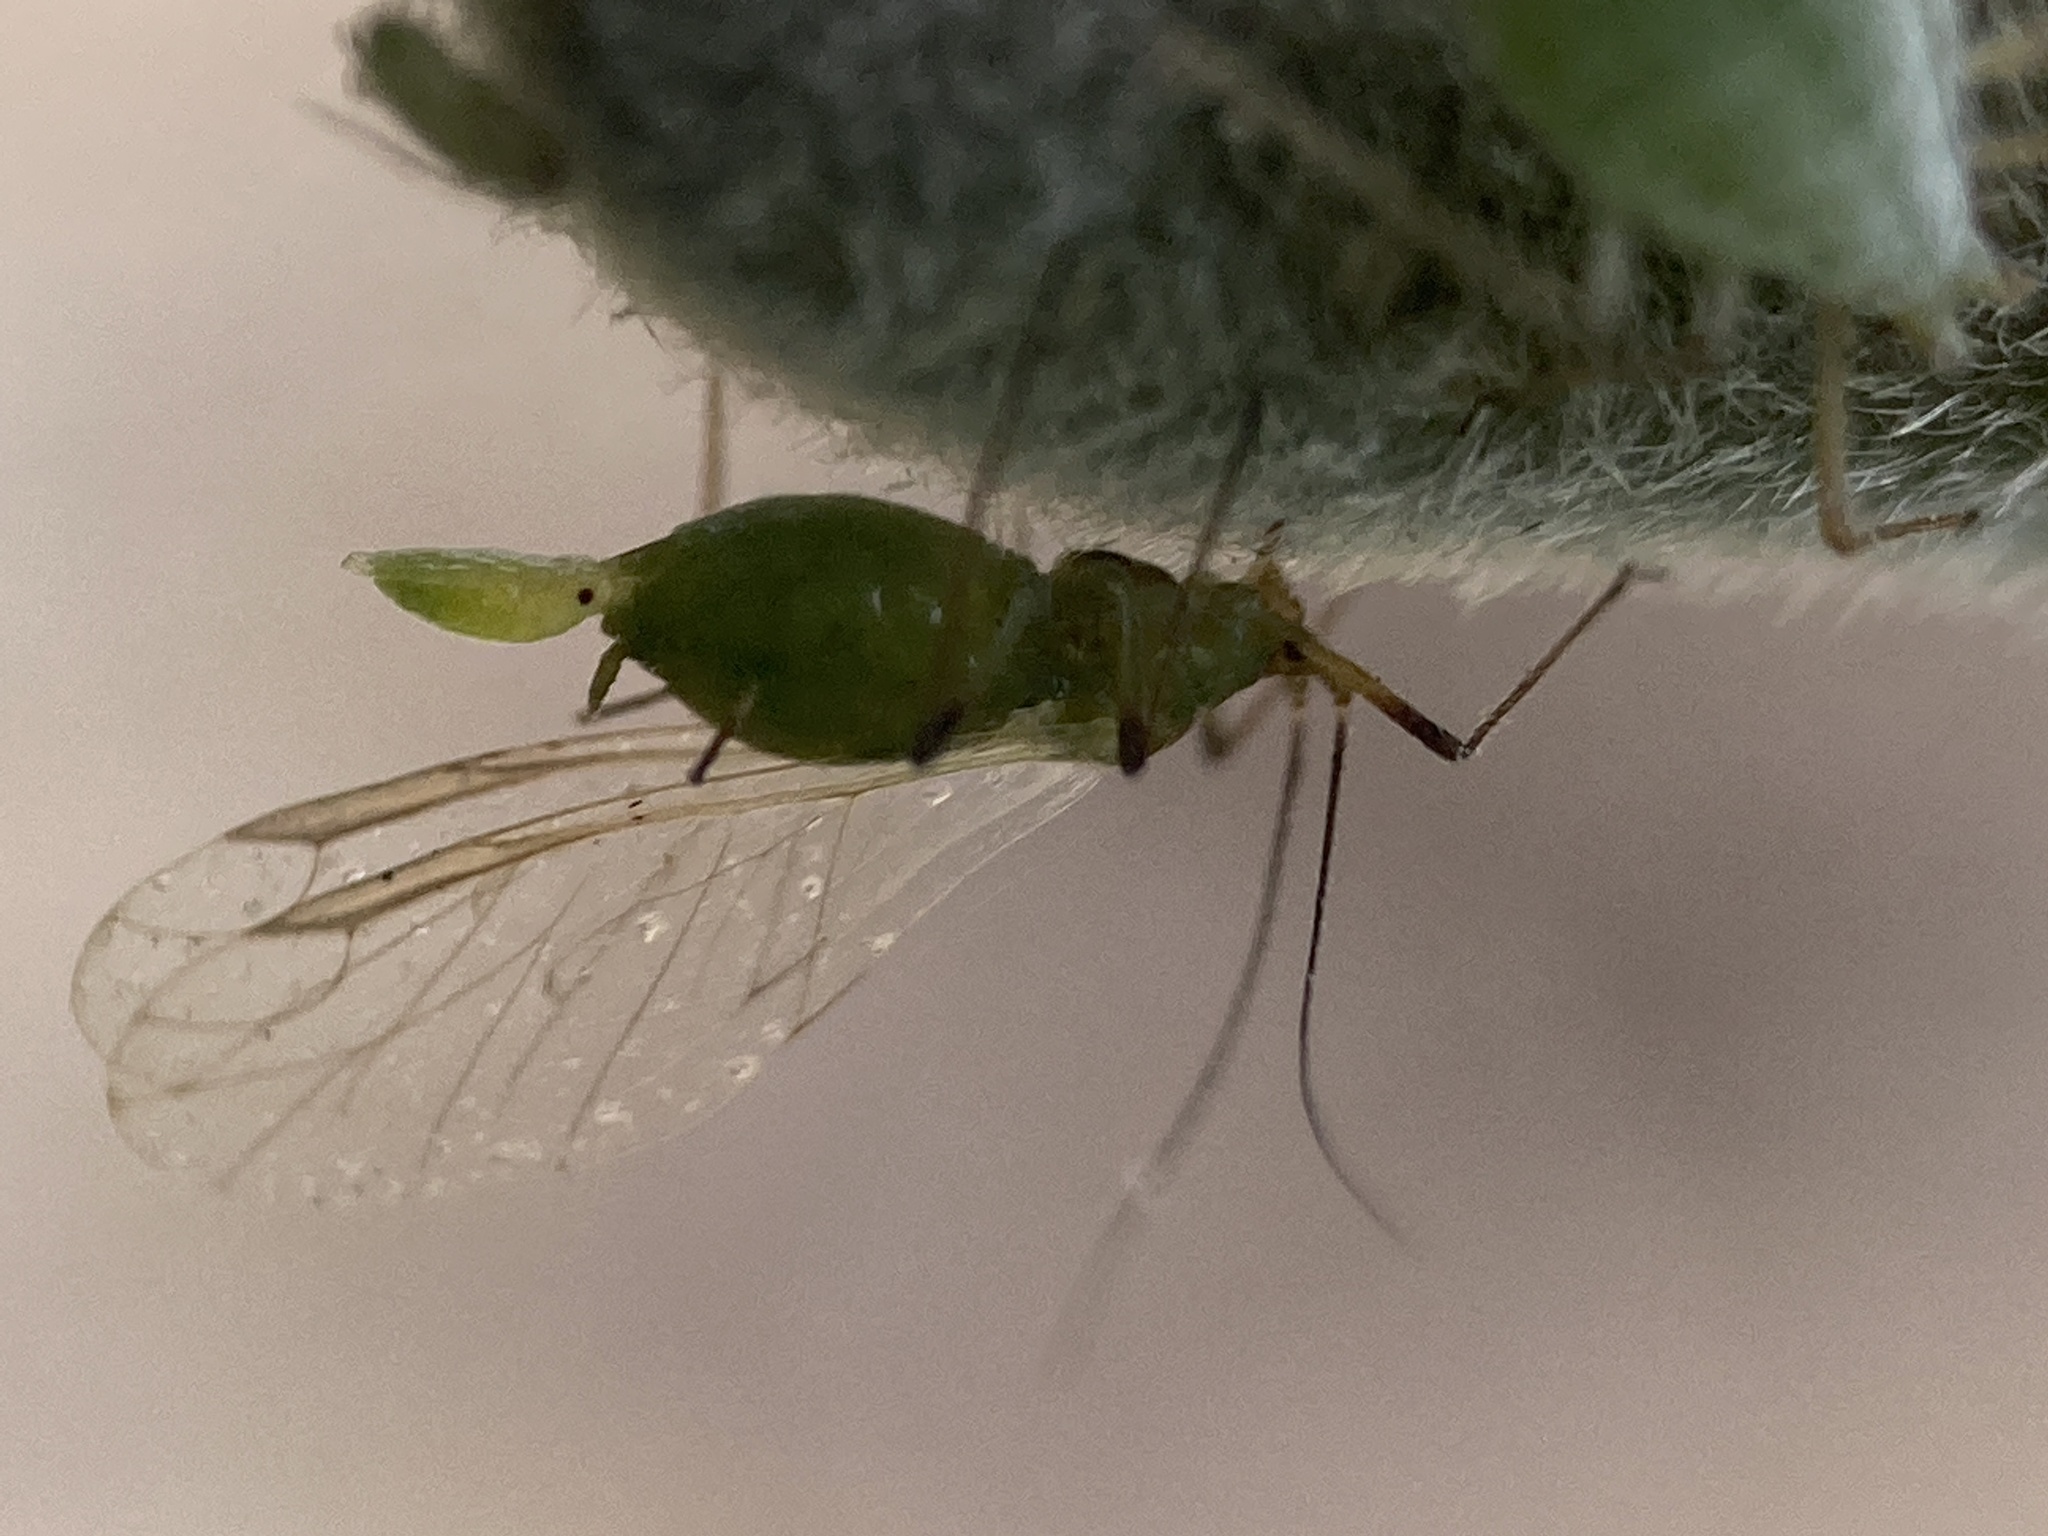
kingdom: Animalia
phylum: Arthropoda
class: Insecta
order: Hemiptera
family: Aphididae
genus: Macrosiphum
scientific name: Macrosiphum albifrons
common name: Lupine aphid
